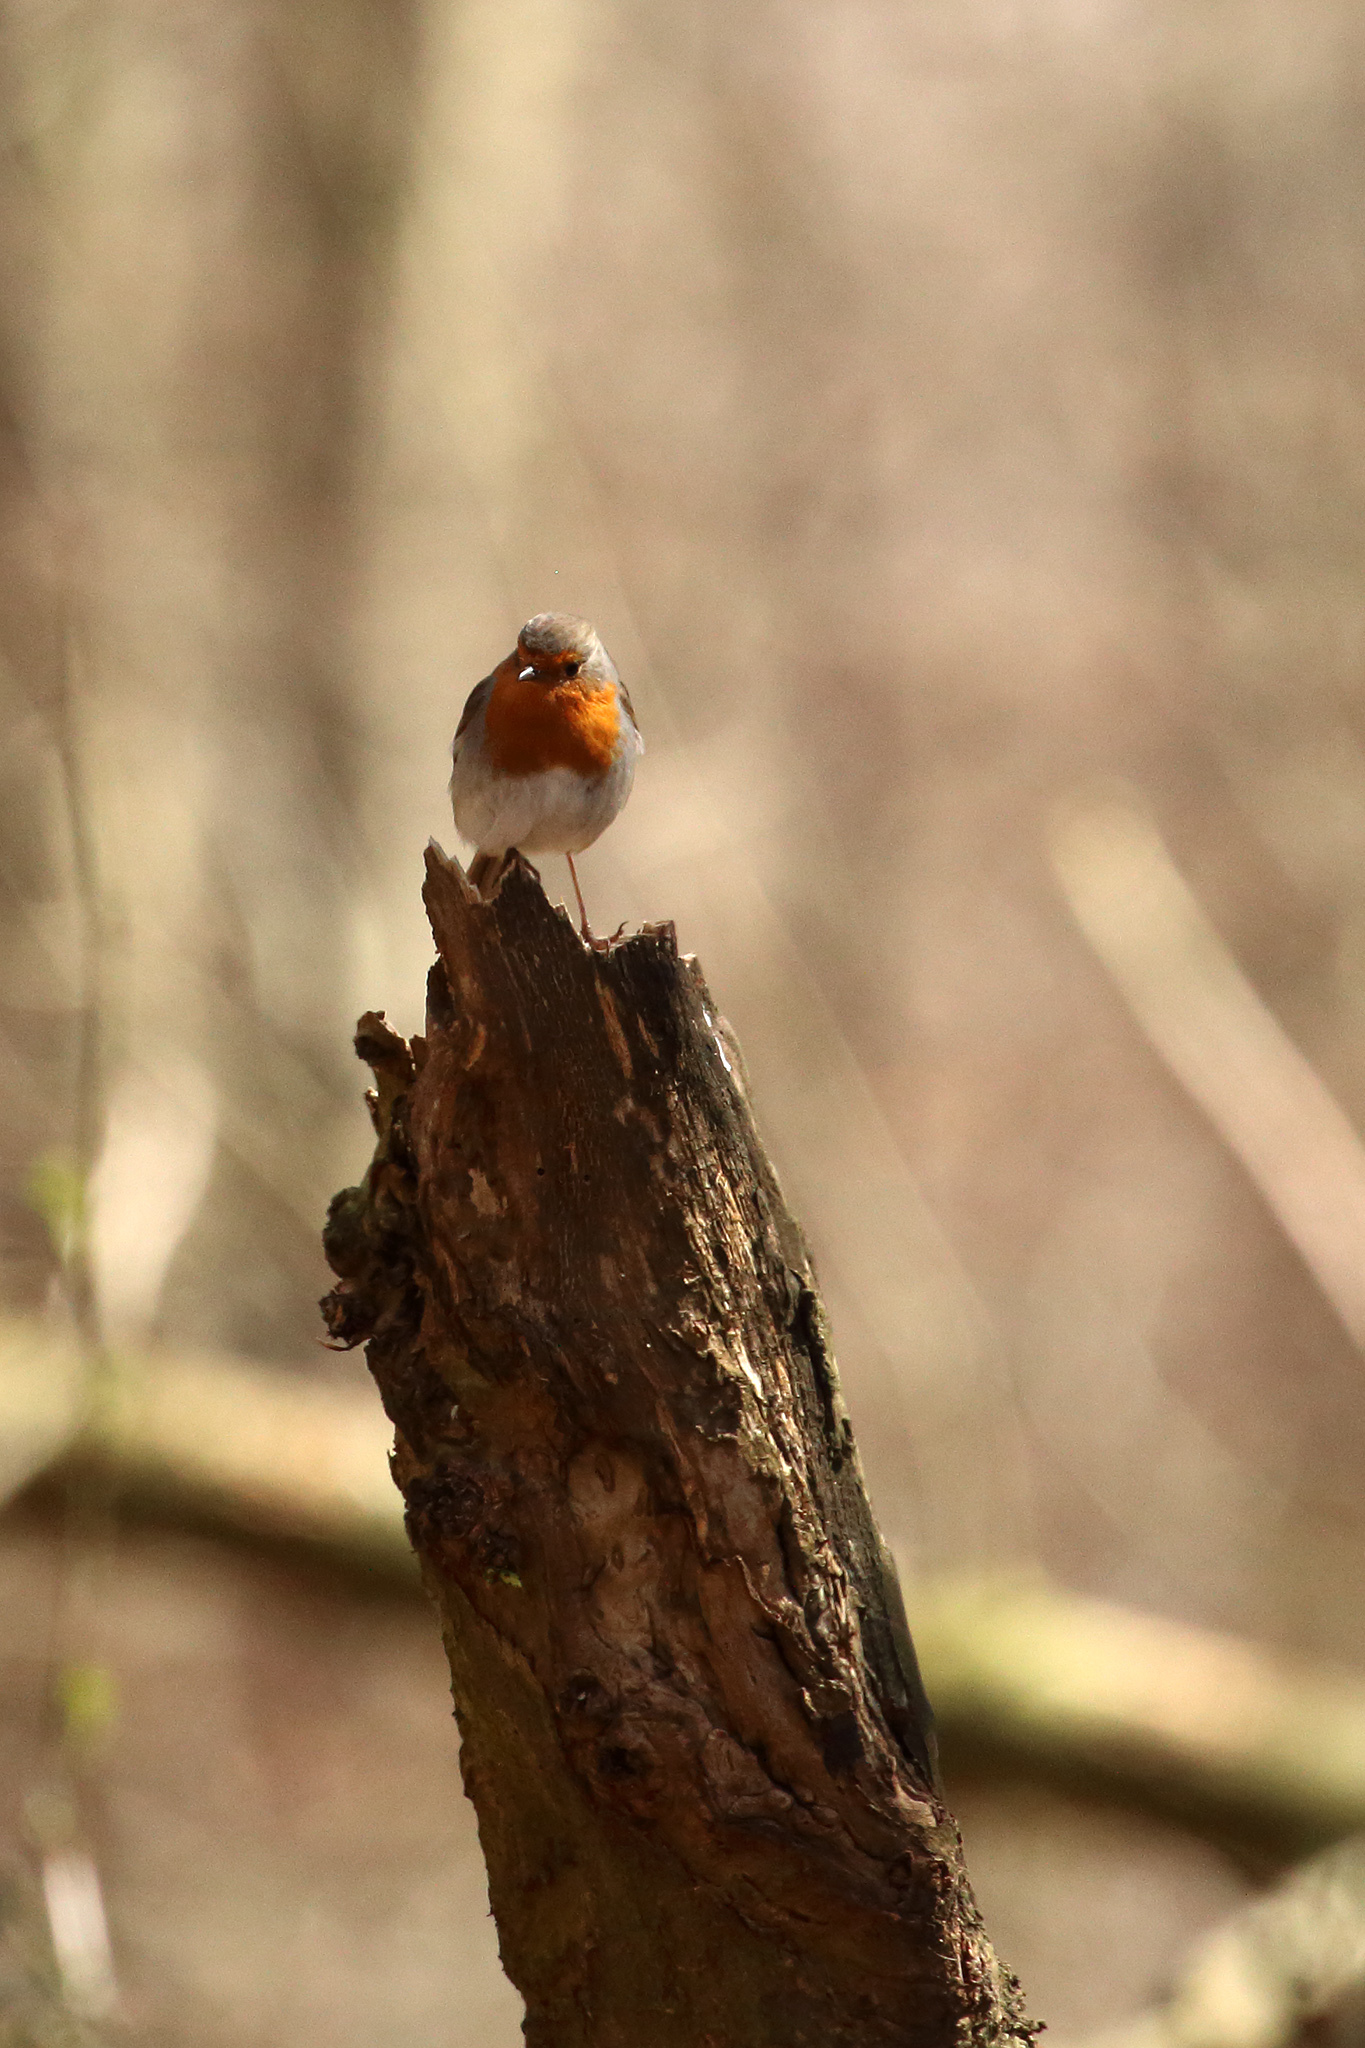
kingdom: Animalia
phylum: Chordata
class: Aves
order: Passeriformes
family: Muscicapidae
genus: Erithacus
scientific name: Erithacus rubecula
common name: European robin
